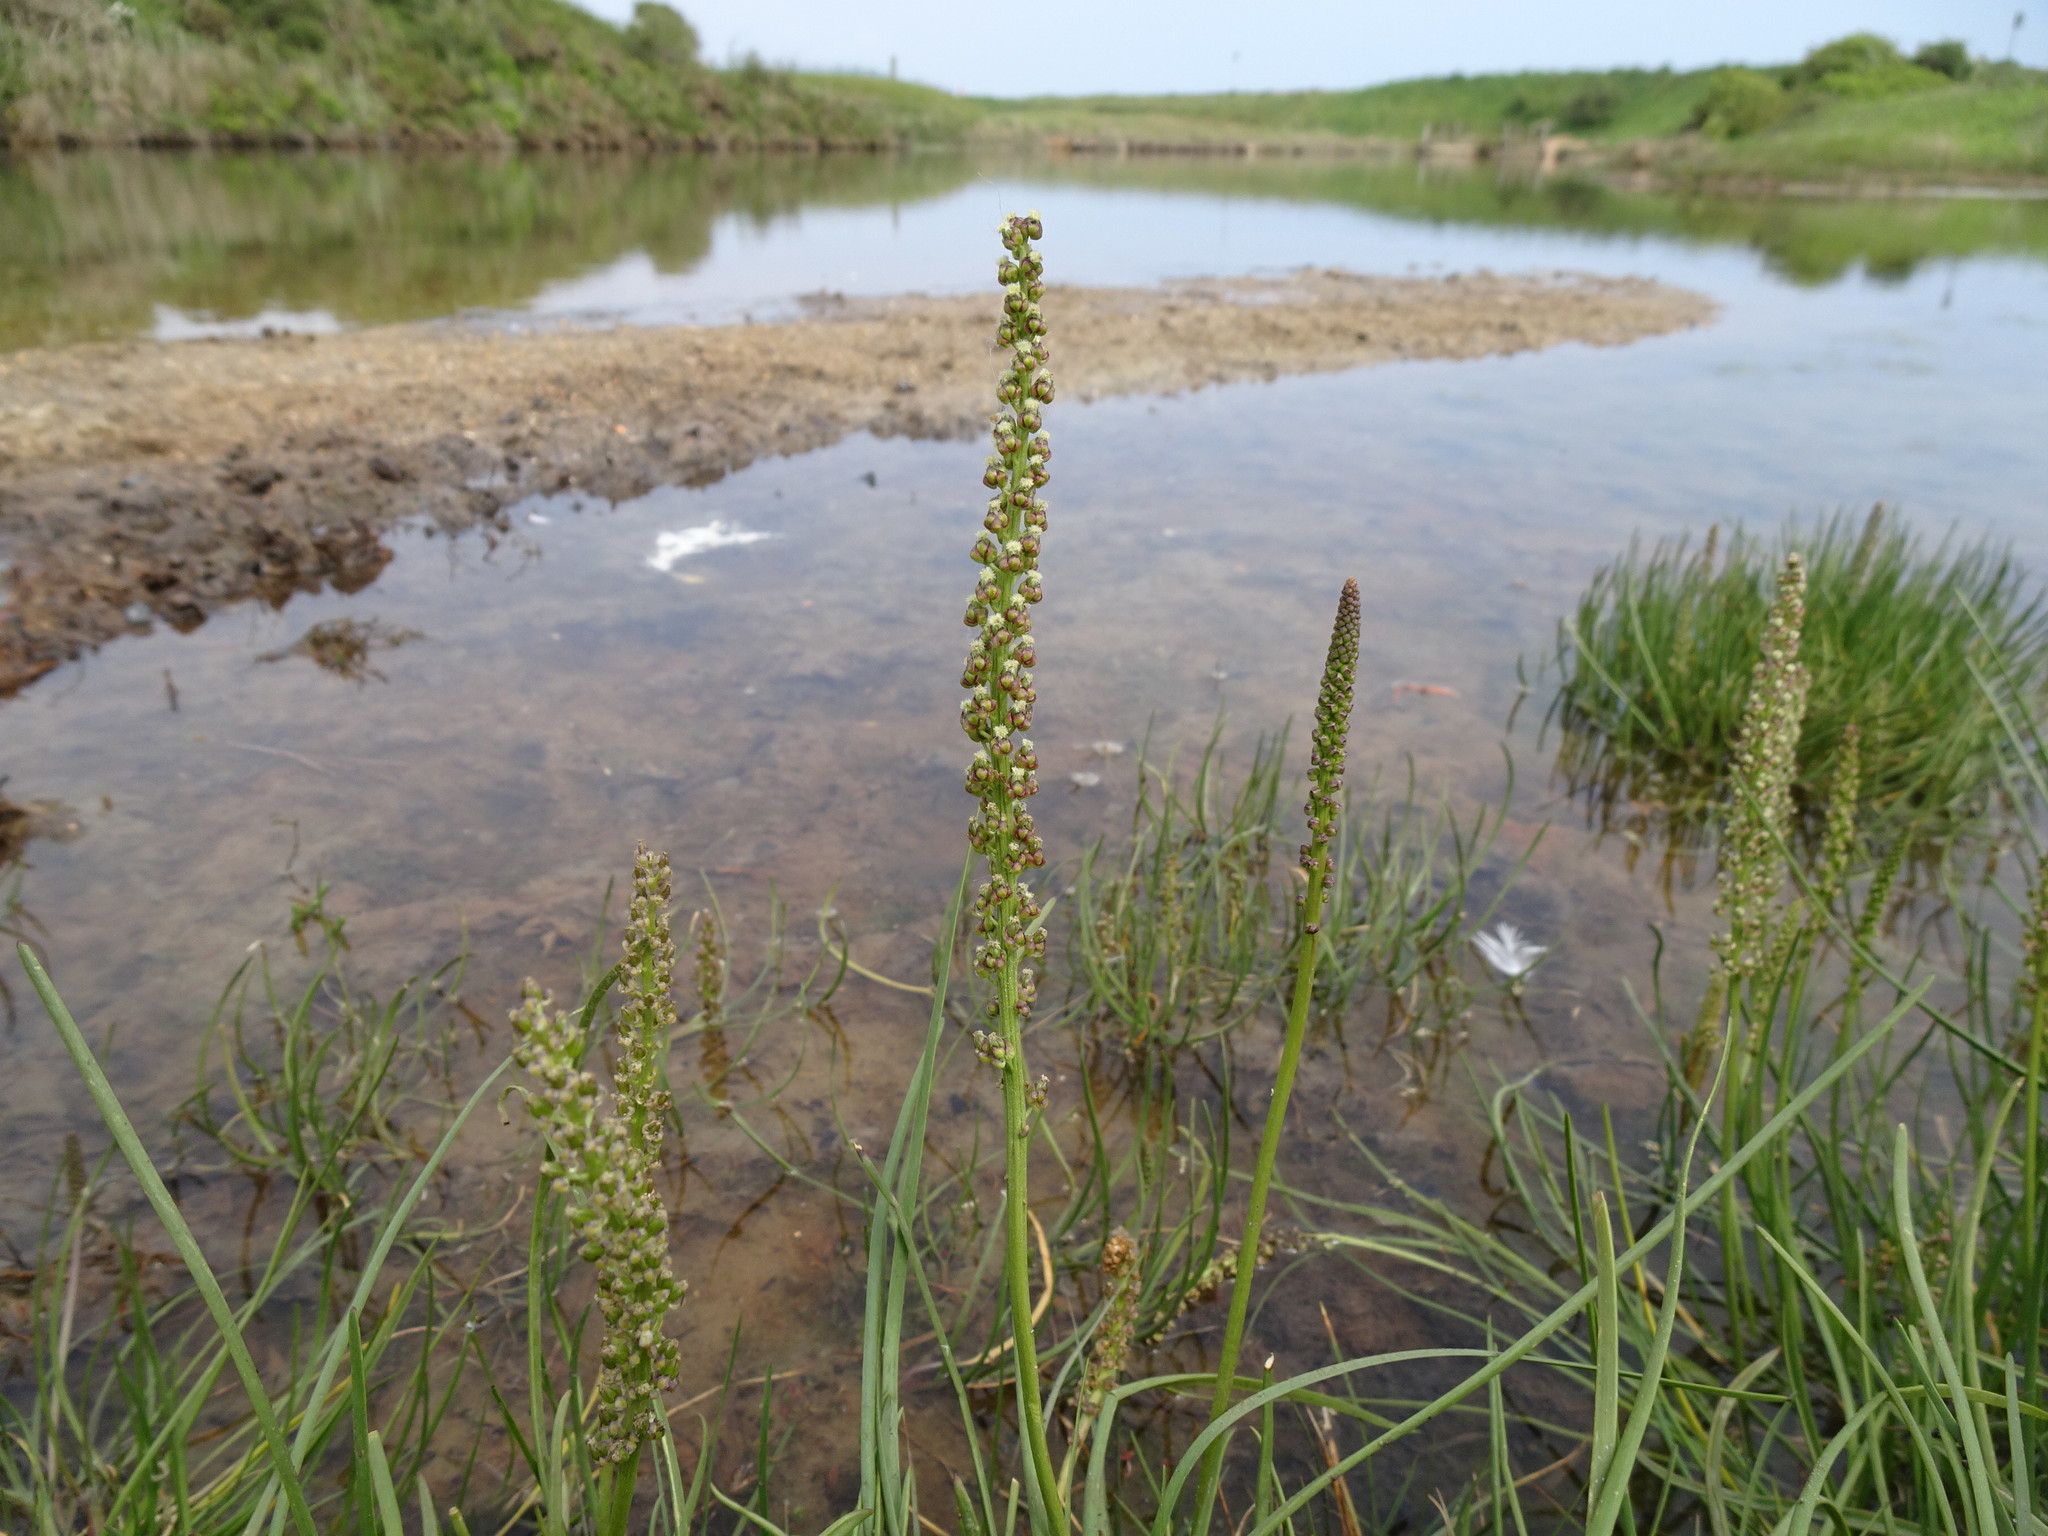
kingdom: Plantae
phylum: Tracheophyta
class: Liliopsida
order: Alismatales
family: Juncaginaceae
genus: Triglochin
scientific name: Triglochin maritima
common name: Sea arrowgrass
